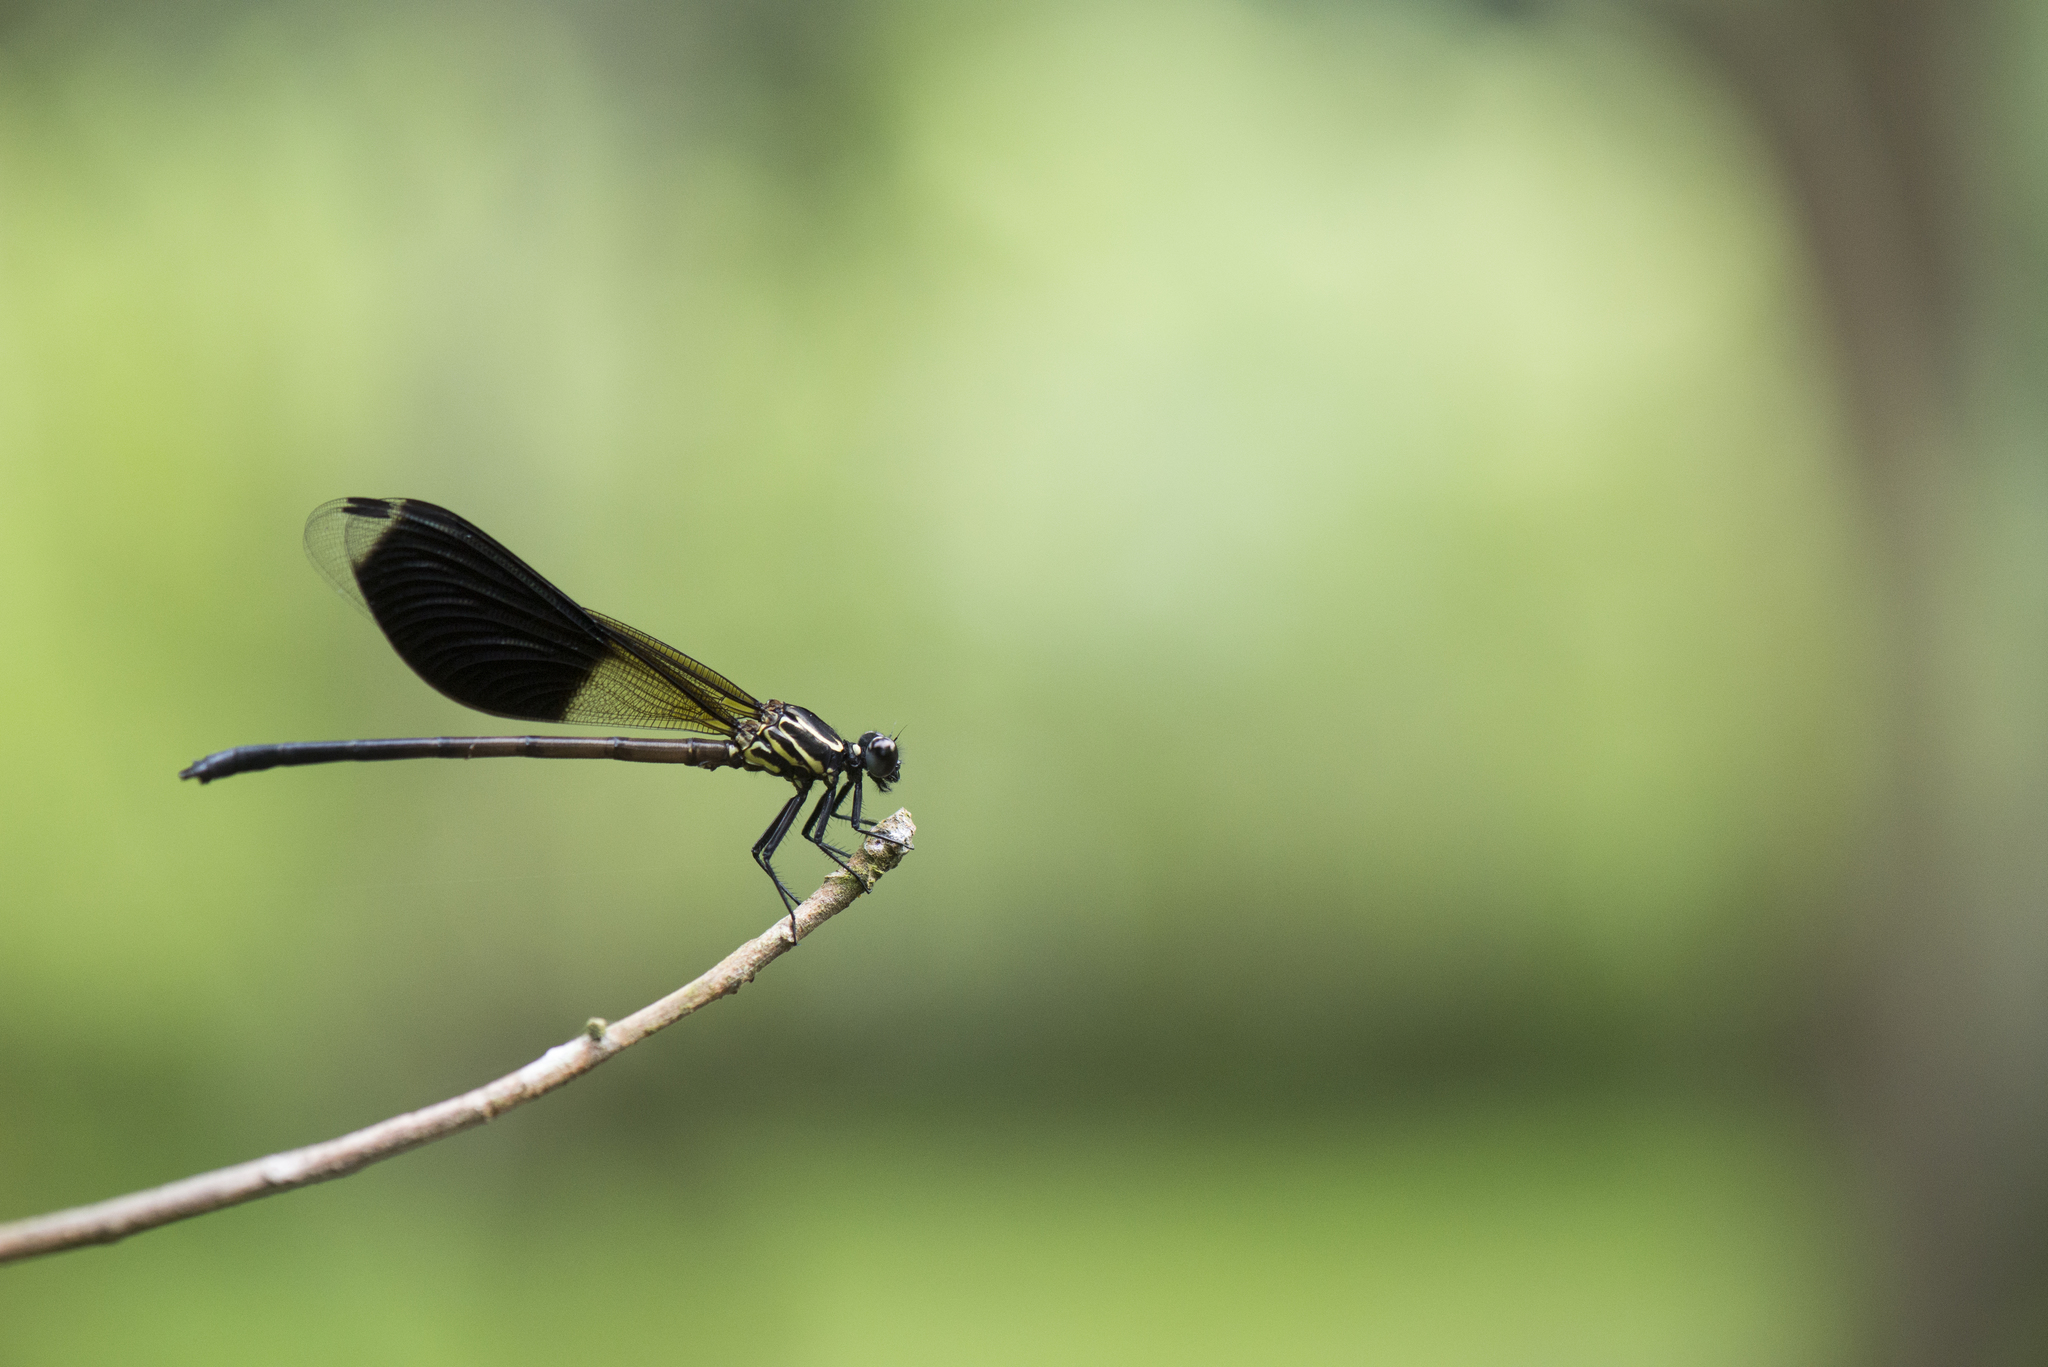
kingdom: Animalia
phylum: Arthropoda
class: Insecta
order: Odonata
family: Euphaeidae
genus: Euphaea
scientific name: Euphaea formosa
